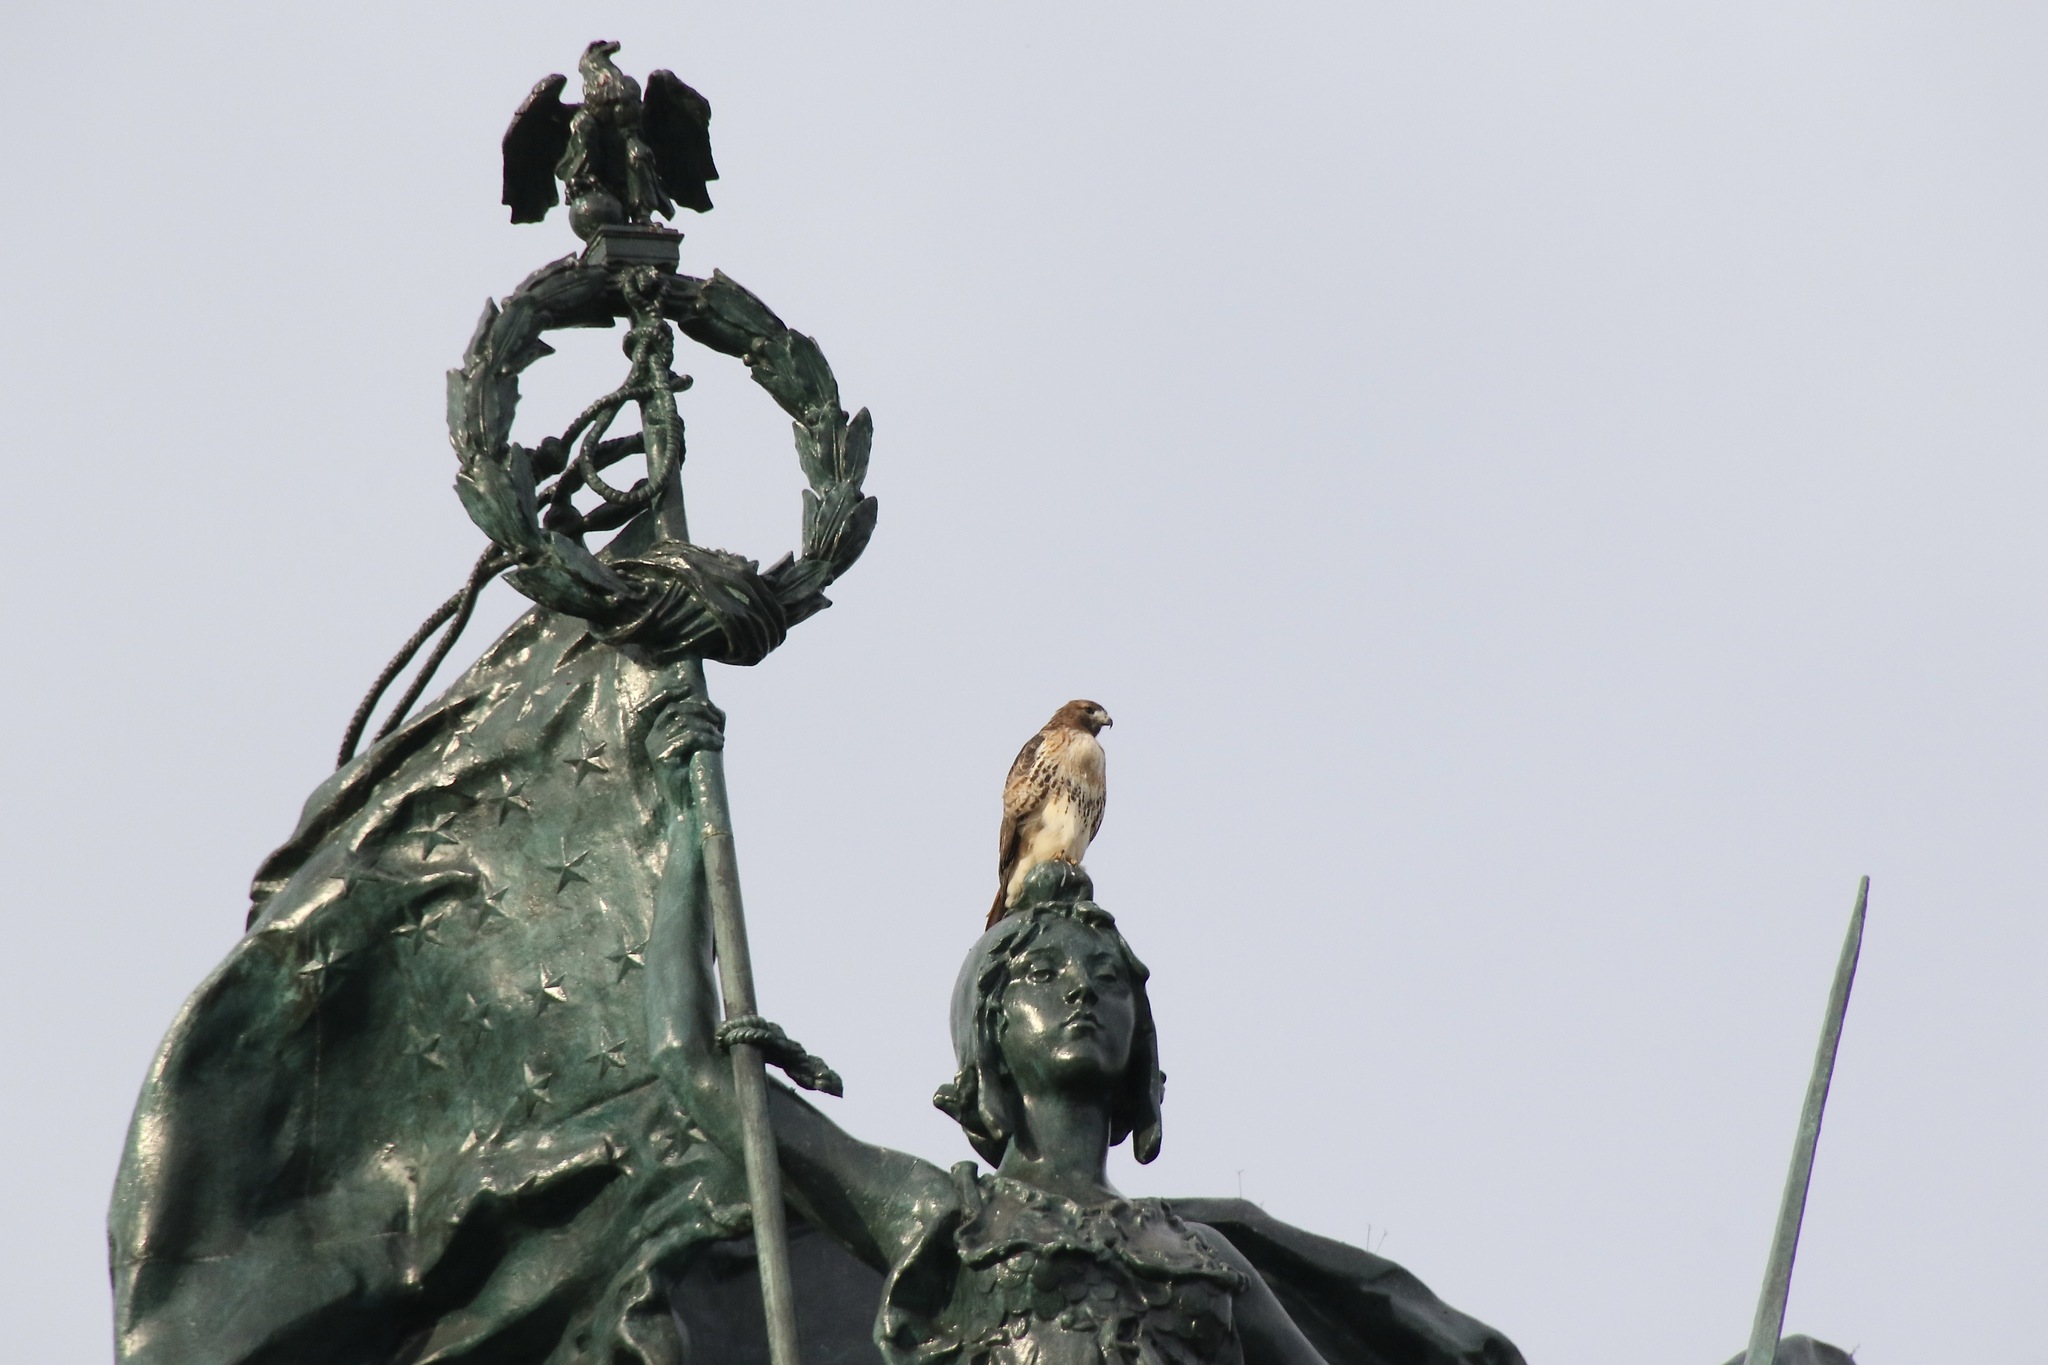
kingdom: Animalia
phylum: Chordata
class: Aves
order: Accipitriformes
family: Accipitridae
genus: Buteo
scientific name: Buteo jamaicensis
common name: Red-tailed hawk
